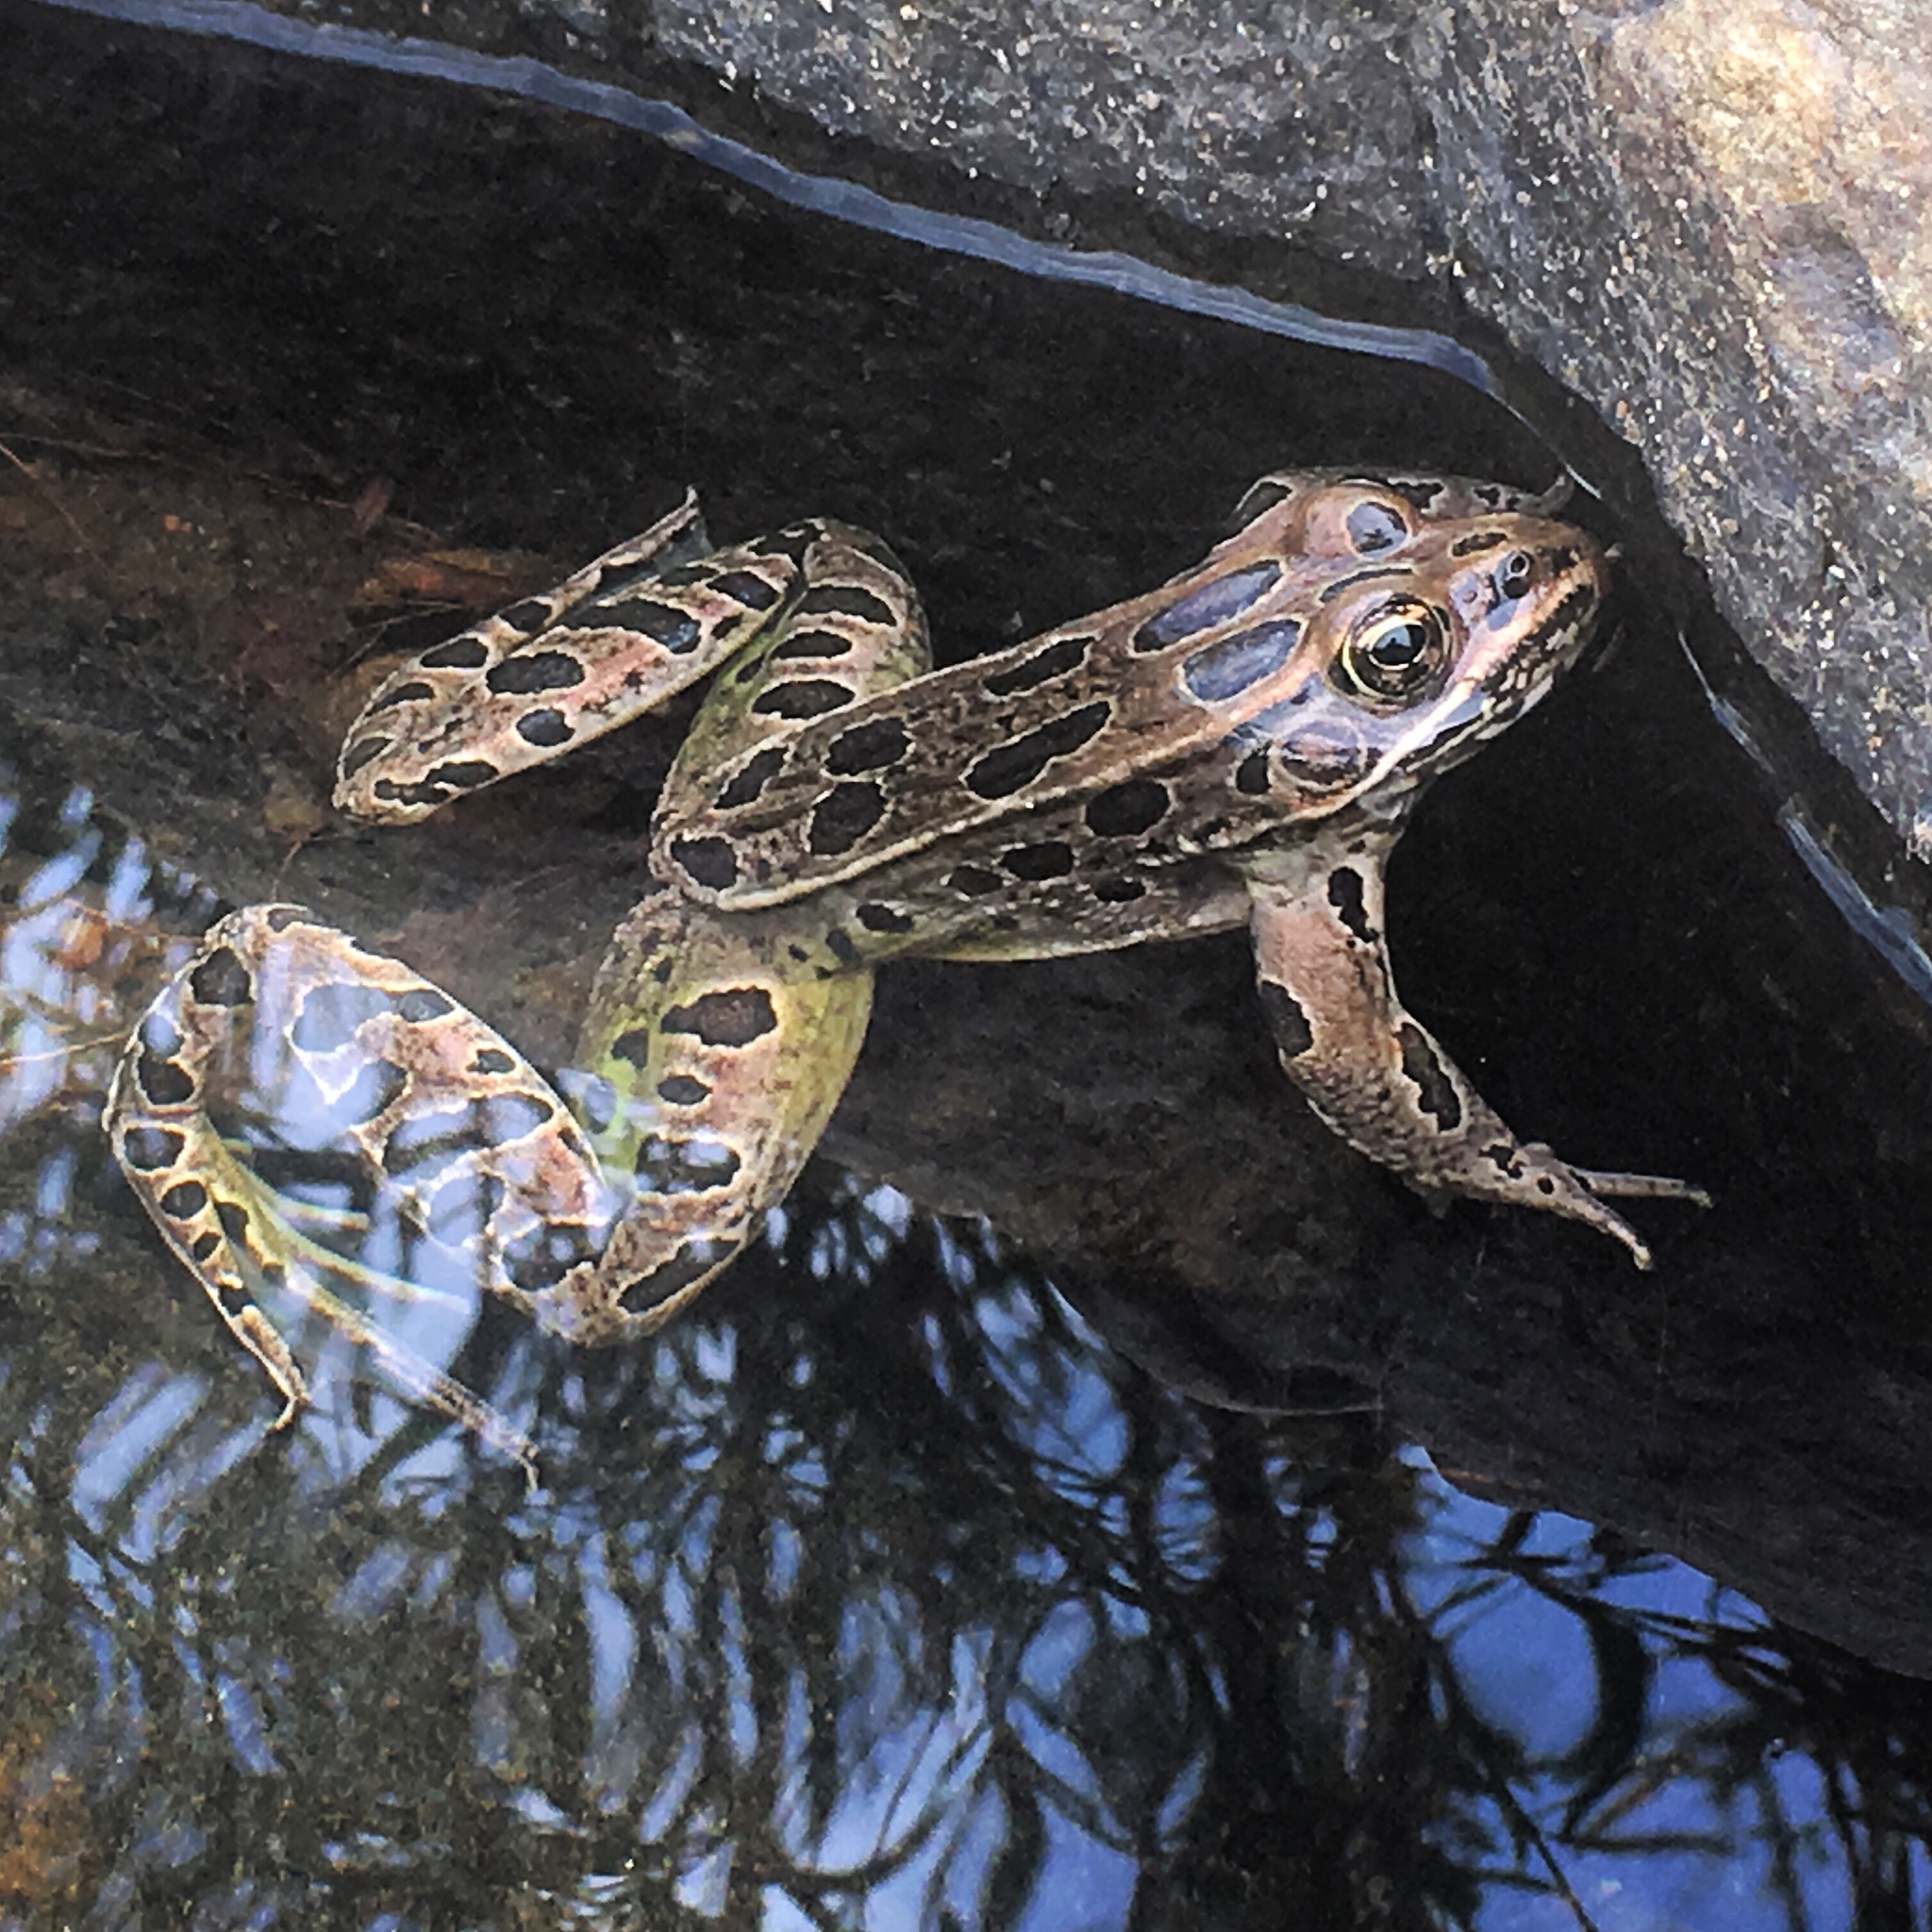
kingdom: Animalia
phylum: Chordata
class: Amphibia
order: Anura
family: Ranidae
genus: Lithobates
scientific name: Lithobates pipiens
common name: Northern leopard frog
